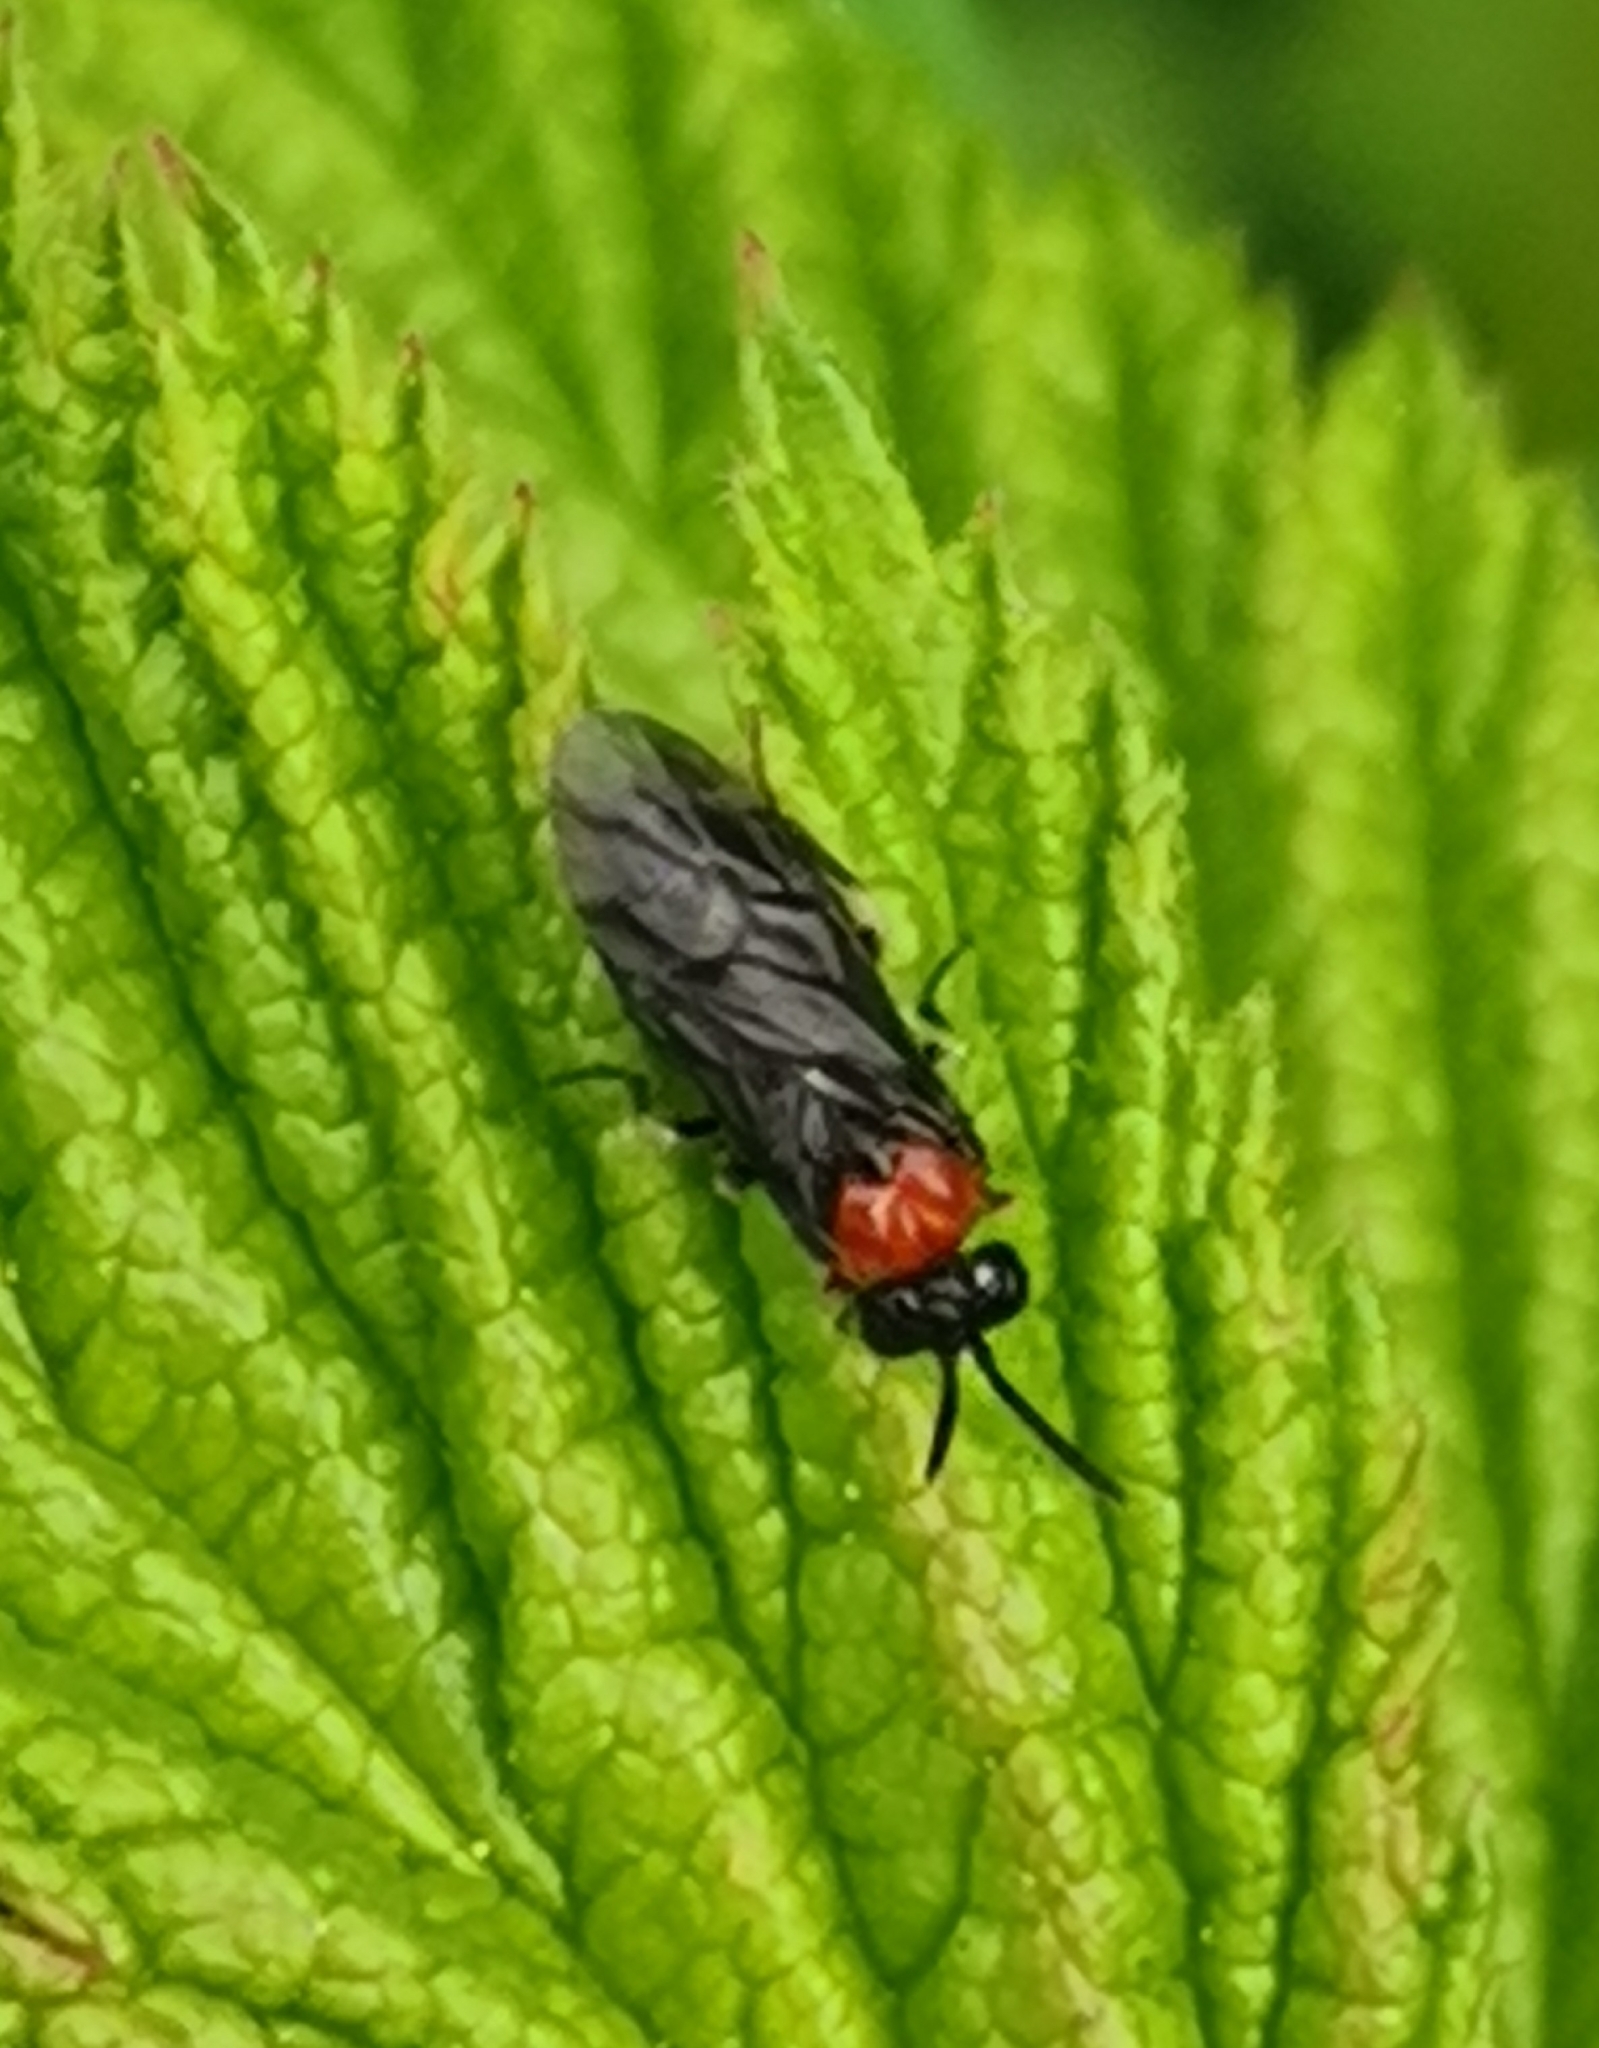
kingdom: Animalia
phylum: Arthropoda
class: Insecta
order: Hymenoptera
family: Tenthredinidae
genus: Eutomostethus
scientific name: Eutomostethus ephippium
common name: Tenthredid wasp
